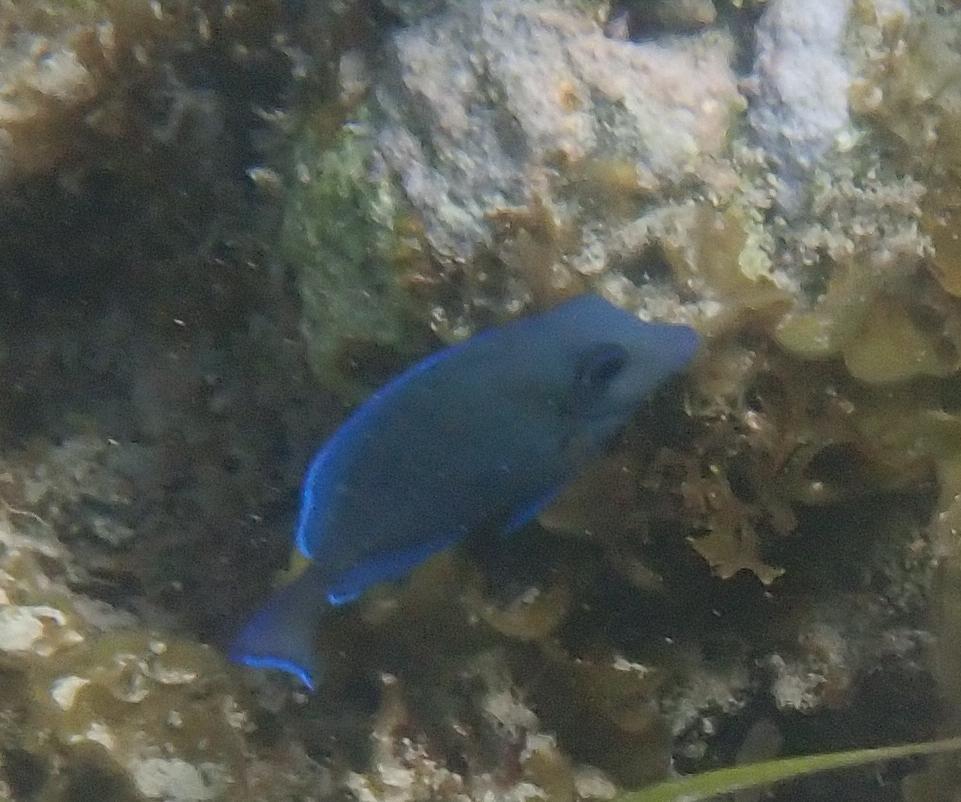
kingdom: Animalia
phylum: Chordata
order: Perciformes
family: Acanthuridae
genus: Acanthurus
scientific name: Acanthurus coeruleus
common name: Blue tang
